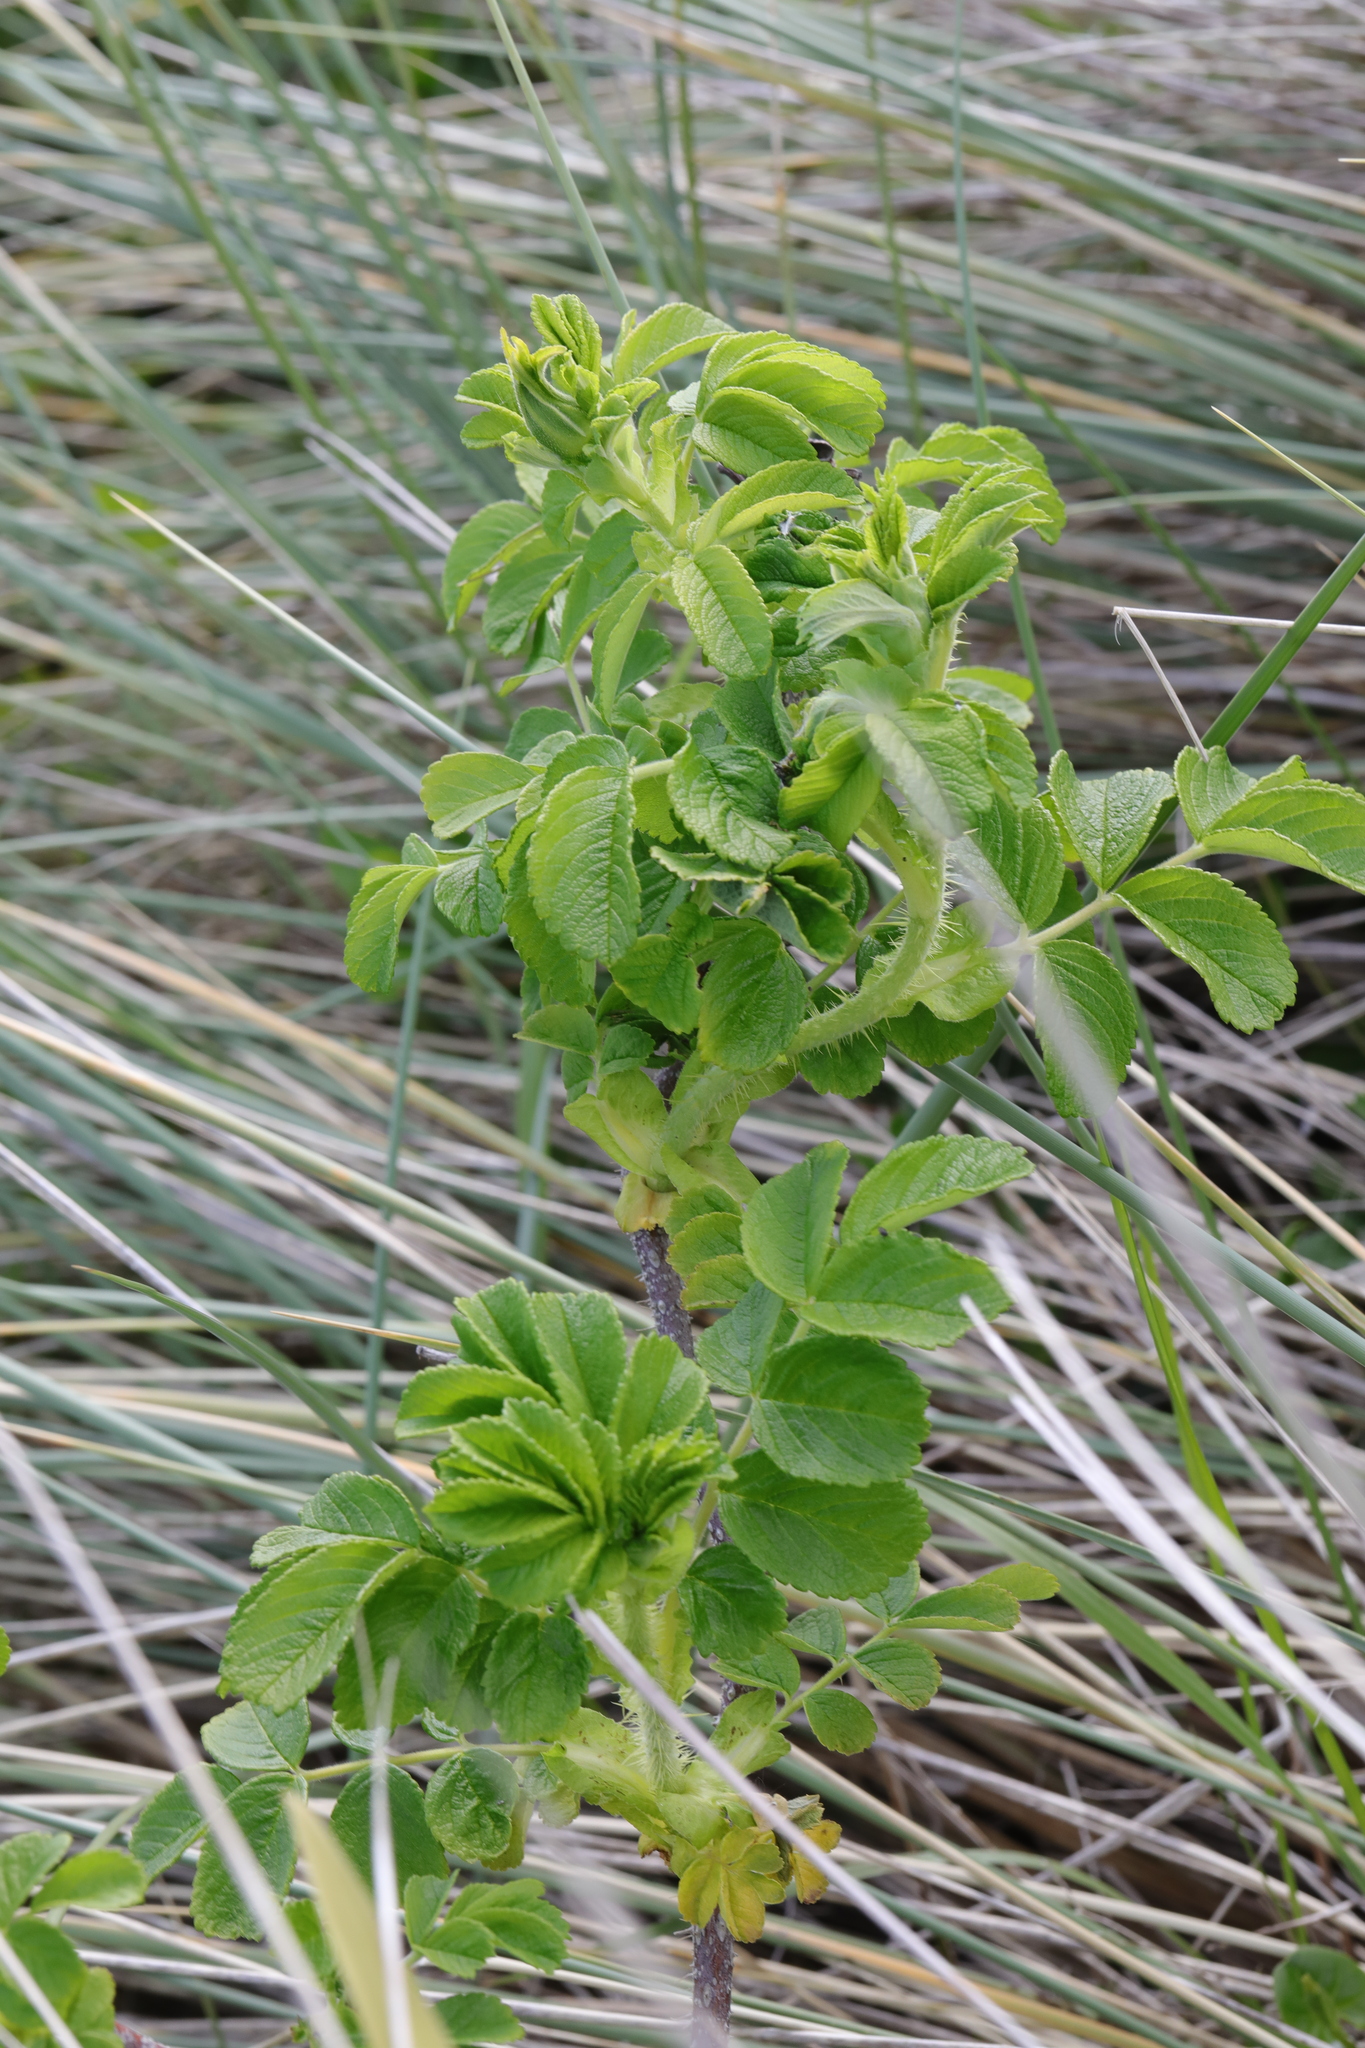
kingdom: Plantae
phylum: Tracheophyta
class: Magnoliopsida
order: Rosales
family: Rosaceae
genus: Rosa
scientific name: Rosa rugosa
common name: Japanese rose
